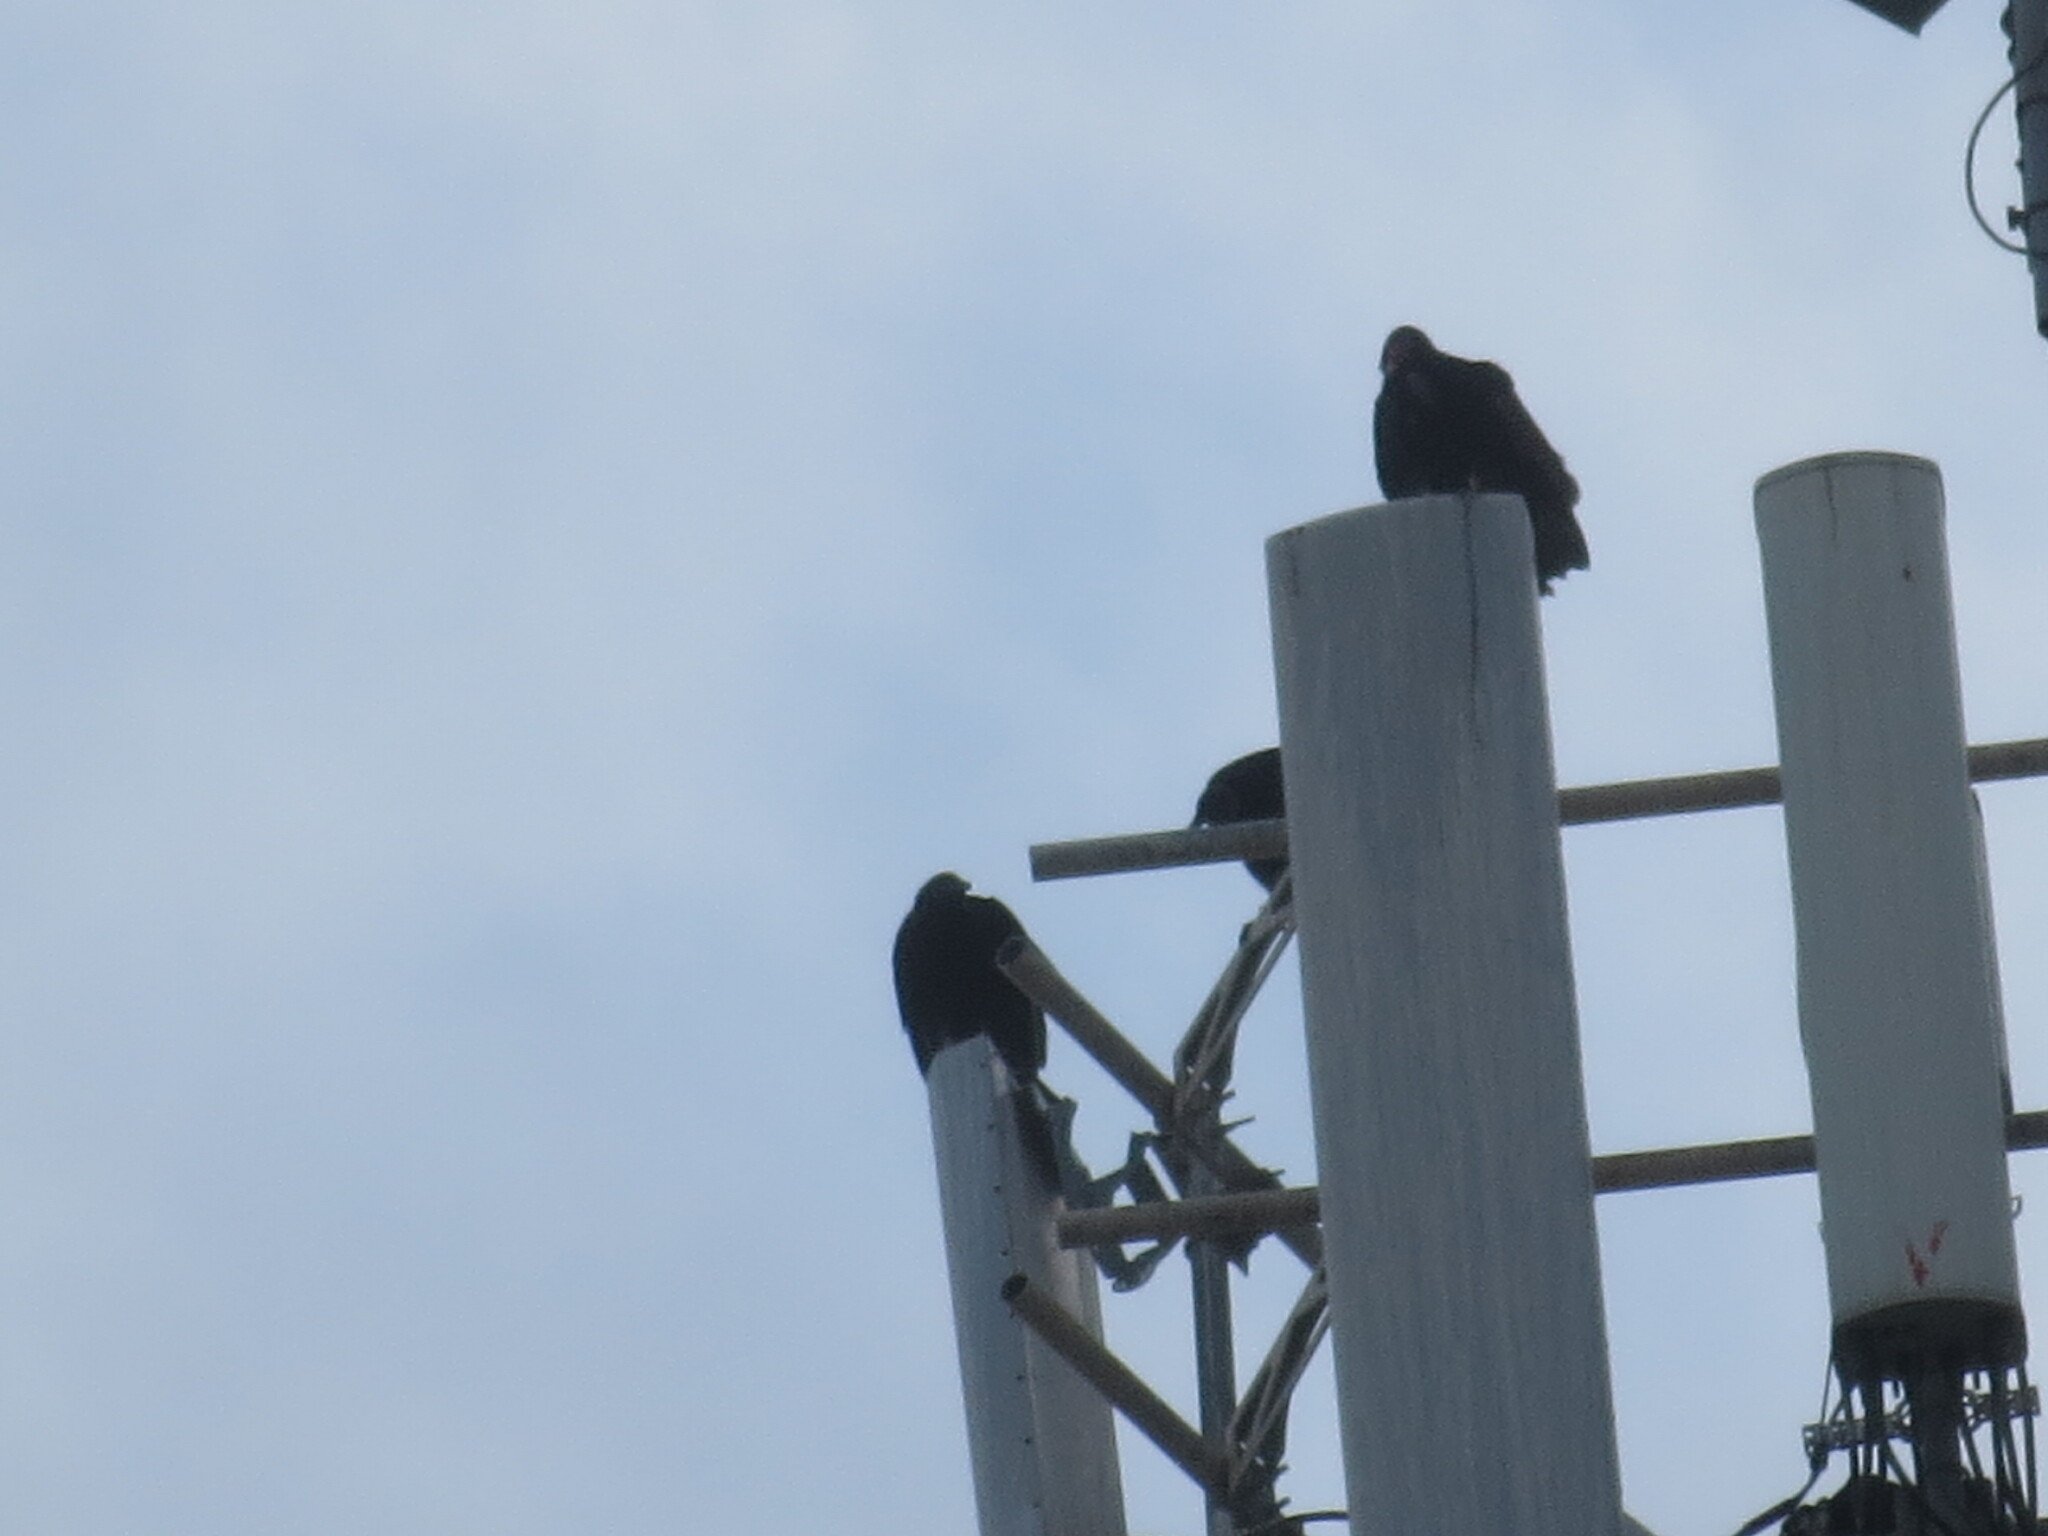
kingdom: Animalia
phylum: Chordata
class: Aves
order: Accipitriformes
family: Cathartidae
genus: Coragyps
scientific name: Coragyps atratus
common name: Black vulture
